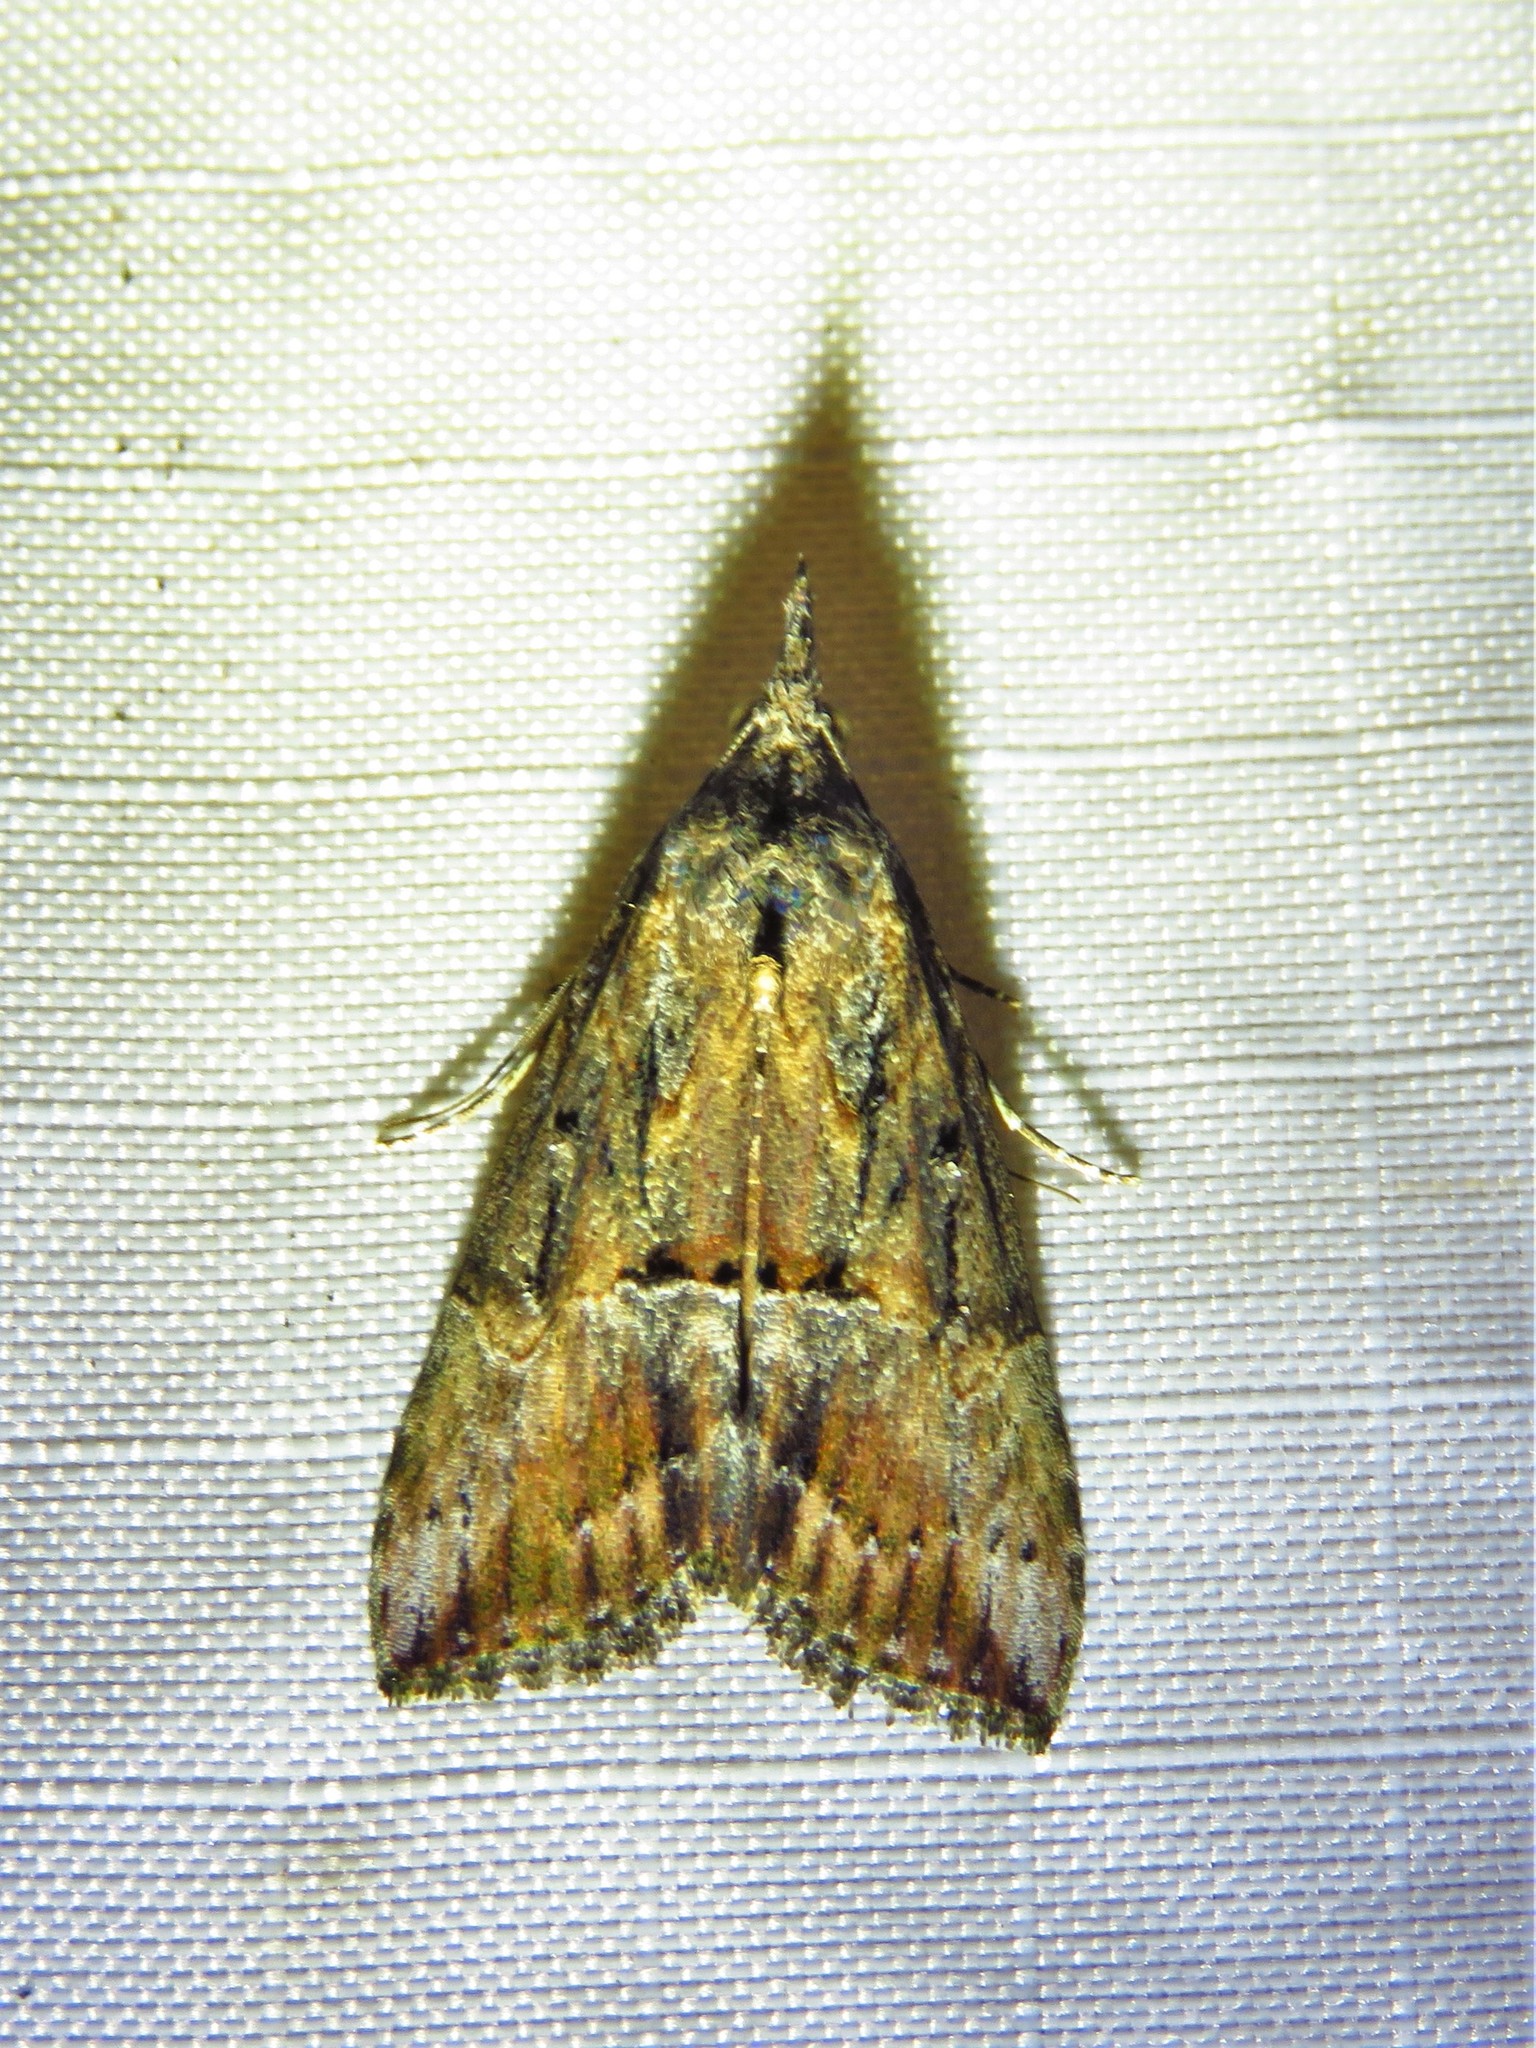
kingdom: Animalia
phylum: Arthropoda
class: Insecta
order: Lepidoptera
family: Erebidae
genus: Hypena
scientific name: Hypena scabra
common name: Green cloverworm
